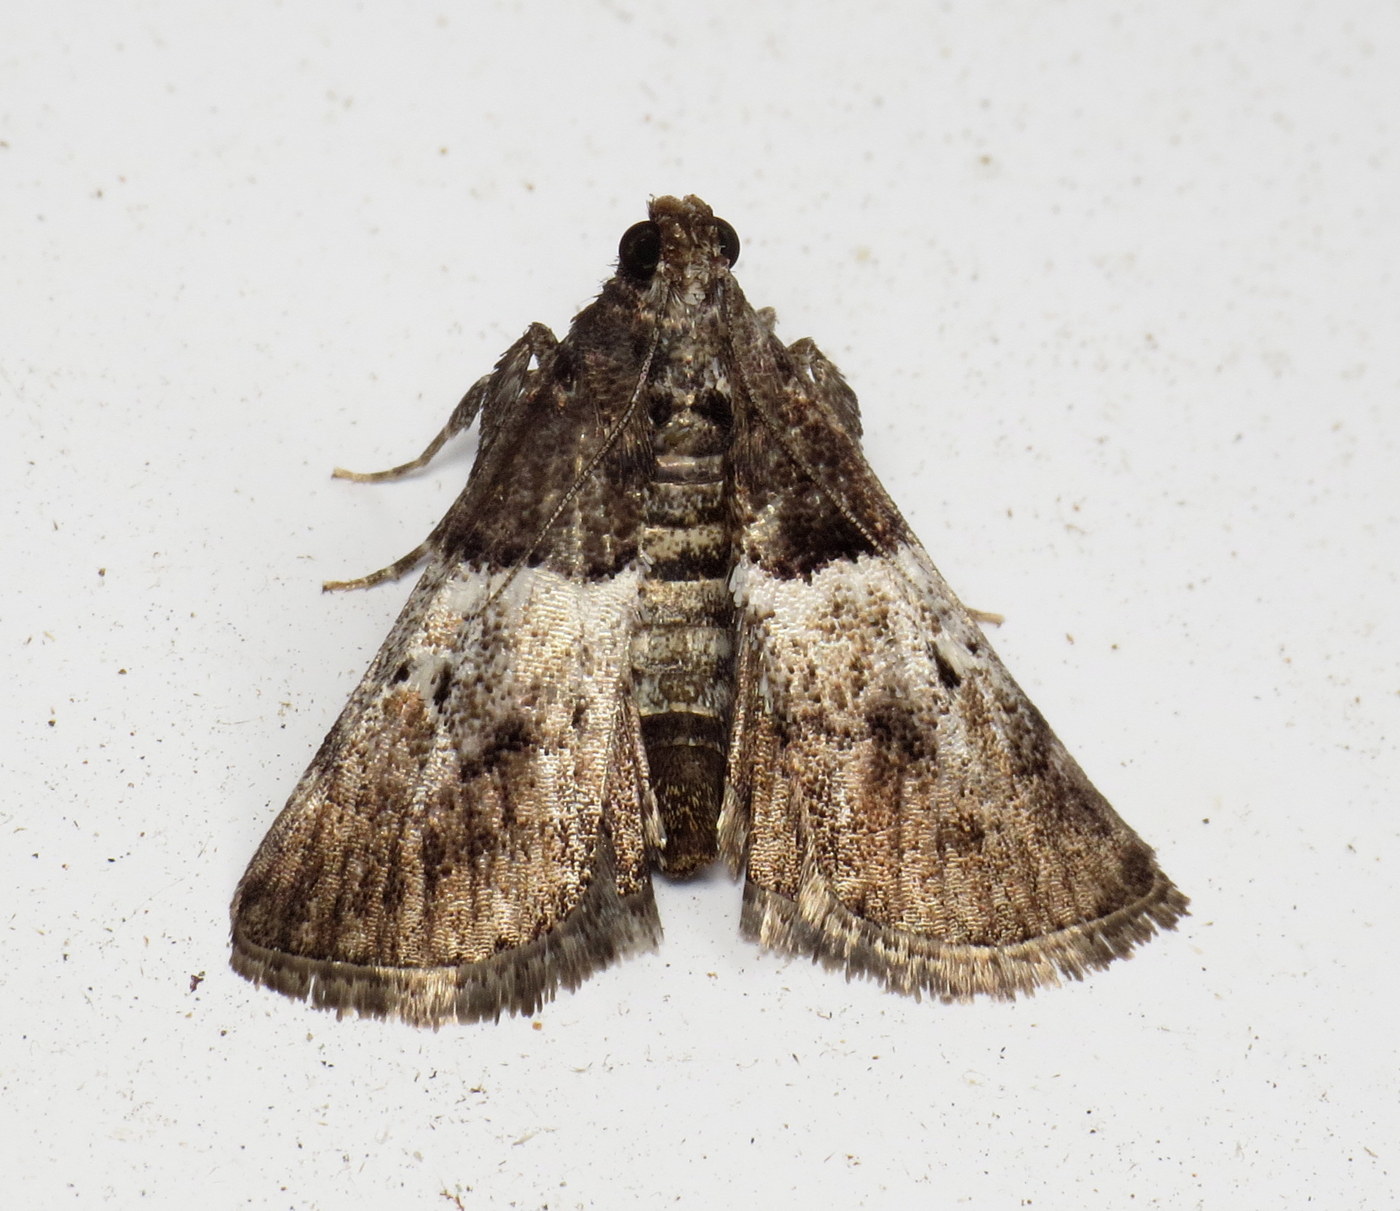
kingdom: Animalia
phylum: Arthropoda
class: Insecta
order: Lepidoptera
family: Pyralidae
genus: Macalla
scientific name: Macalla zelleri
